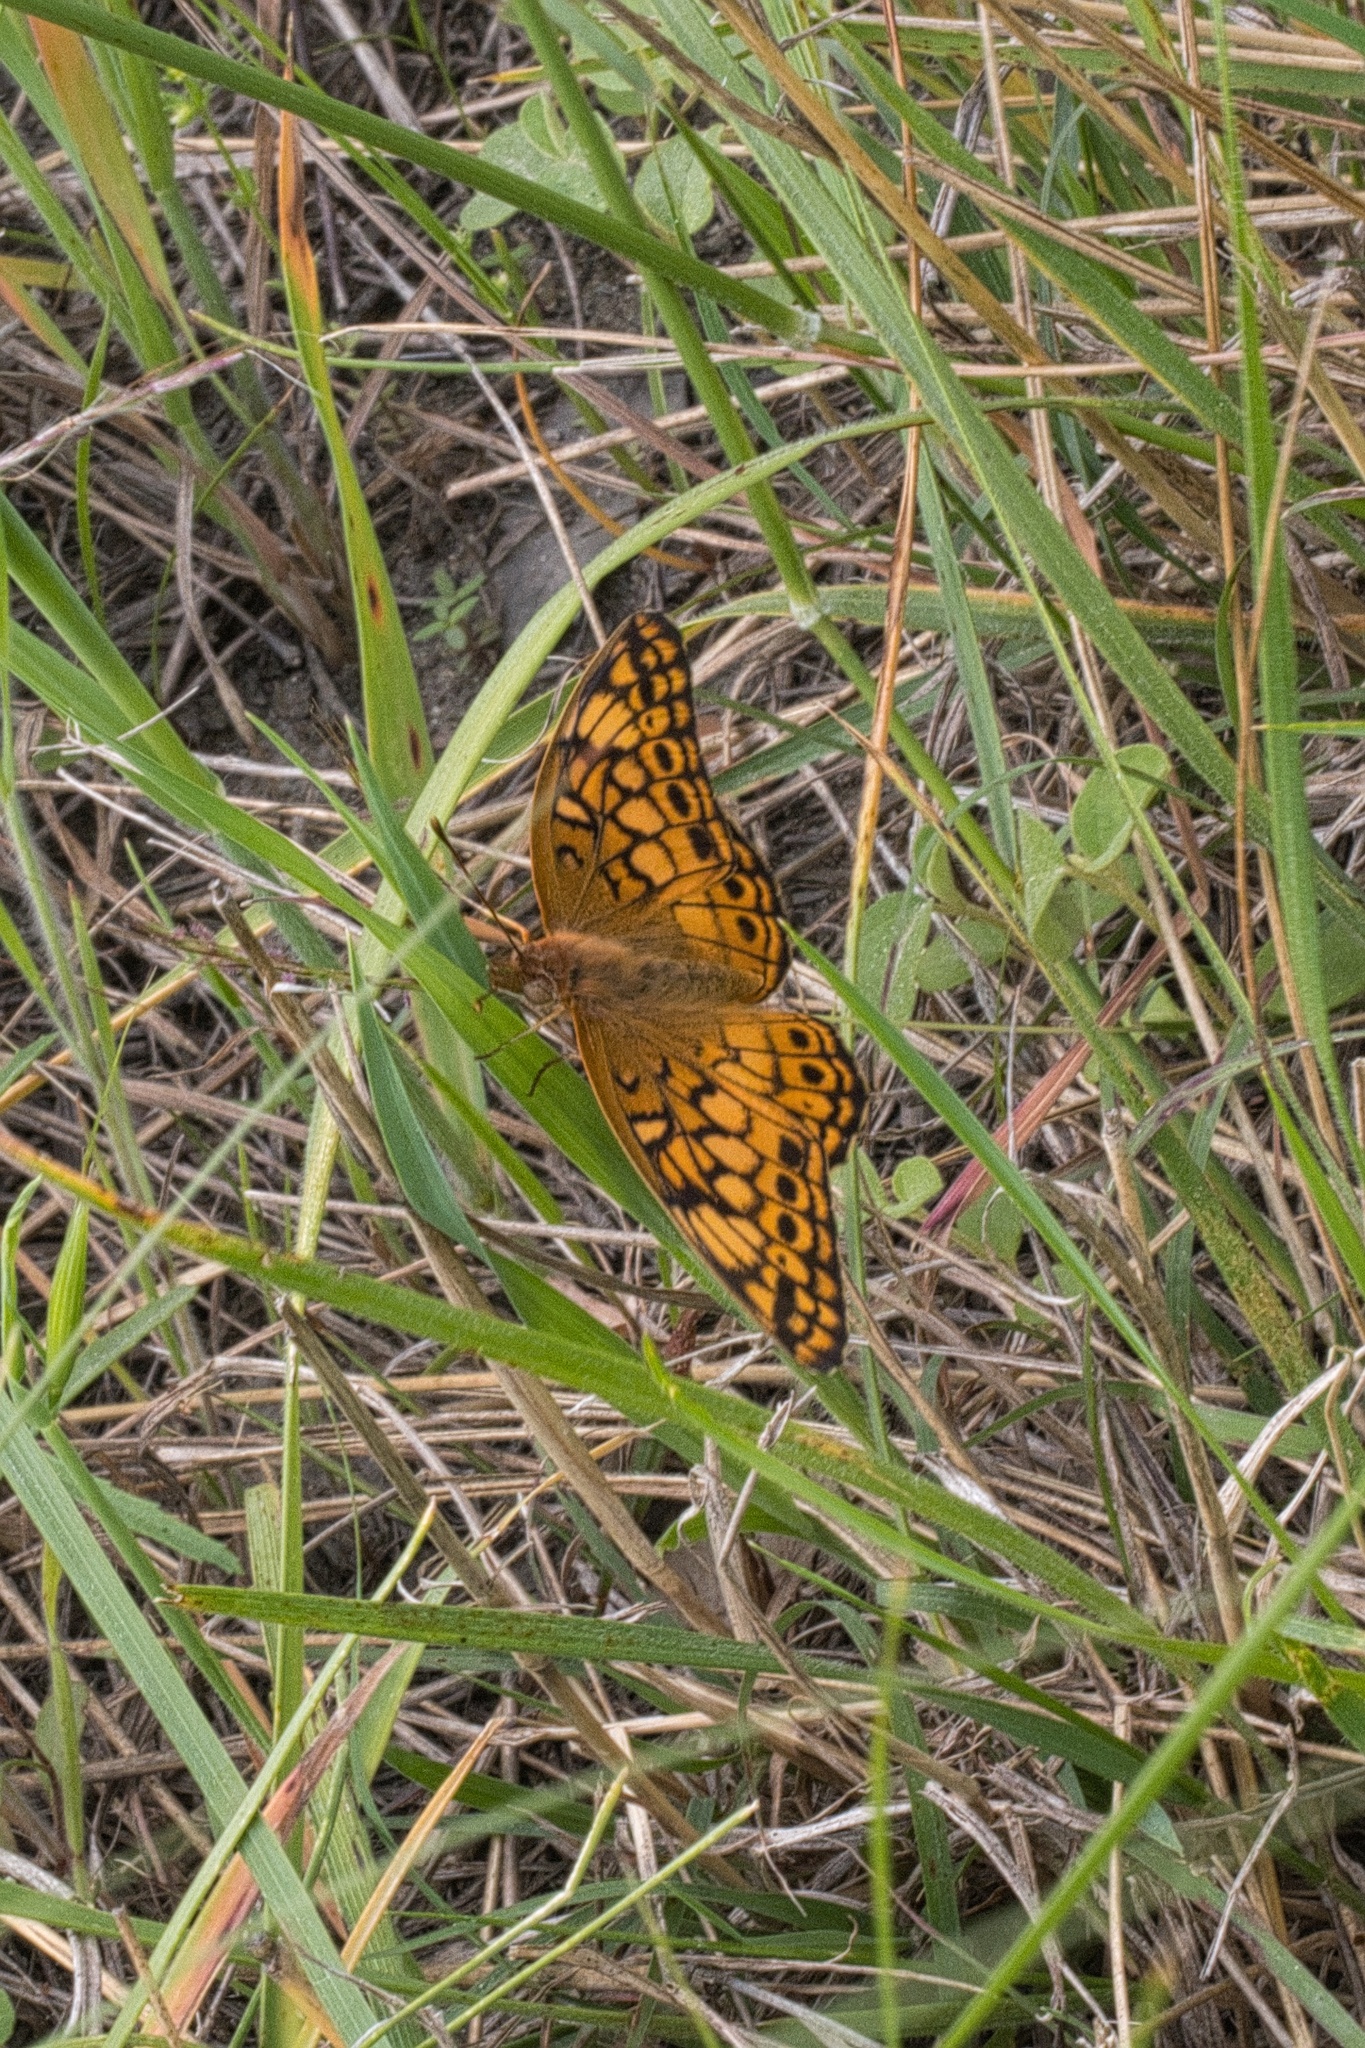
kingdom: Animalia
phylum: Arthropoda
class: Insecta
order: Lepidoptera
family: Nymphalidae
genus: Euptoieta
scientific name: Euptoieta claudia
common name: Variegated fritillary
